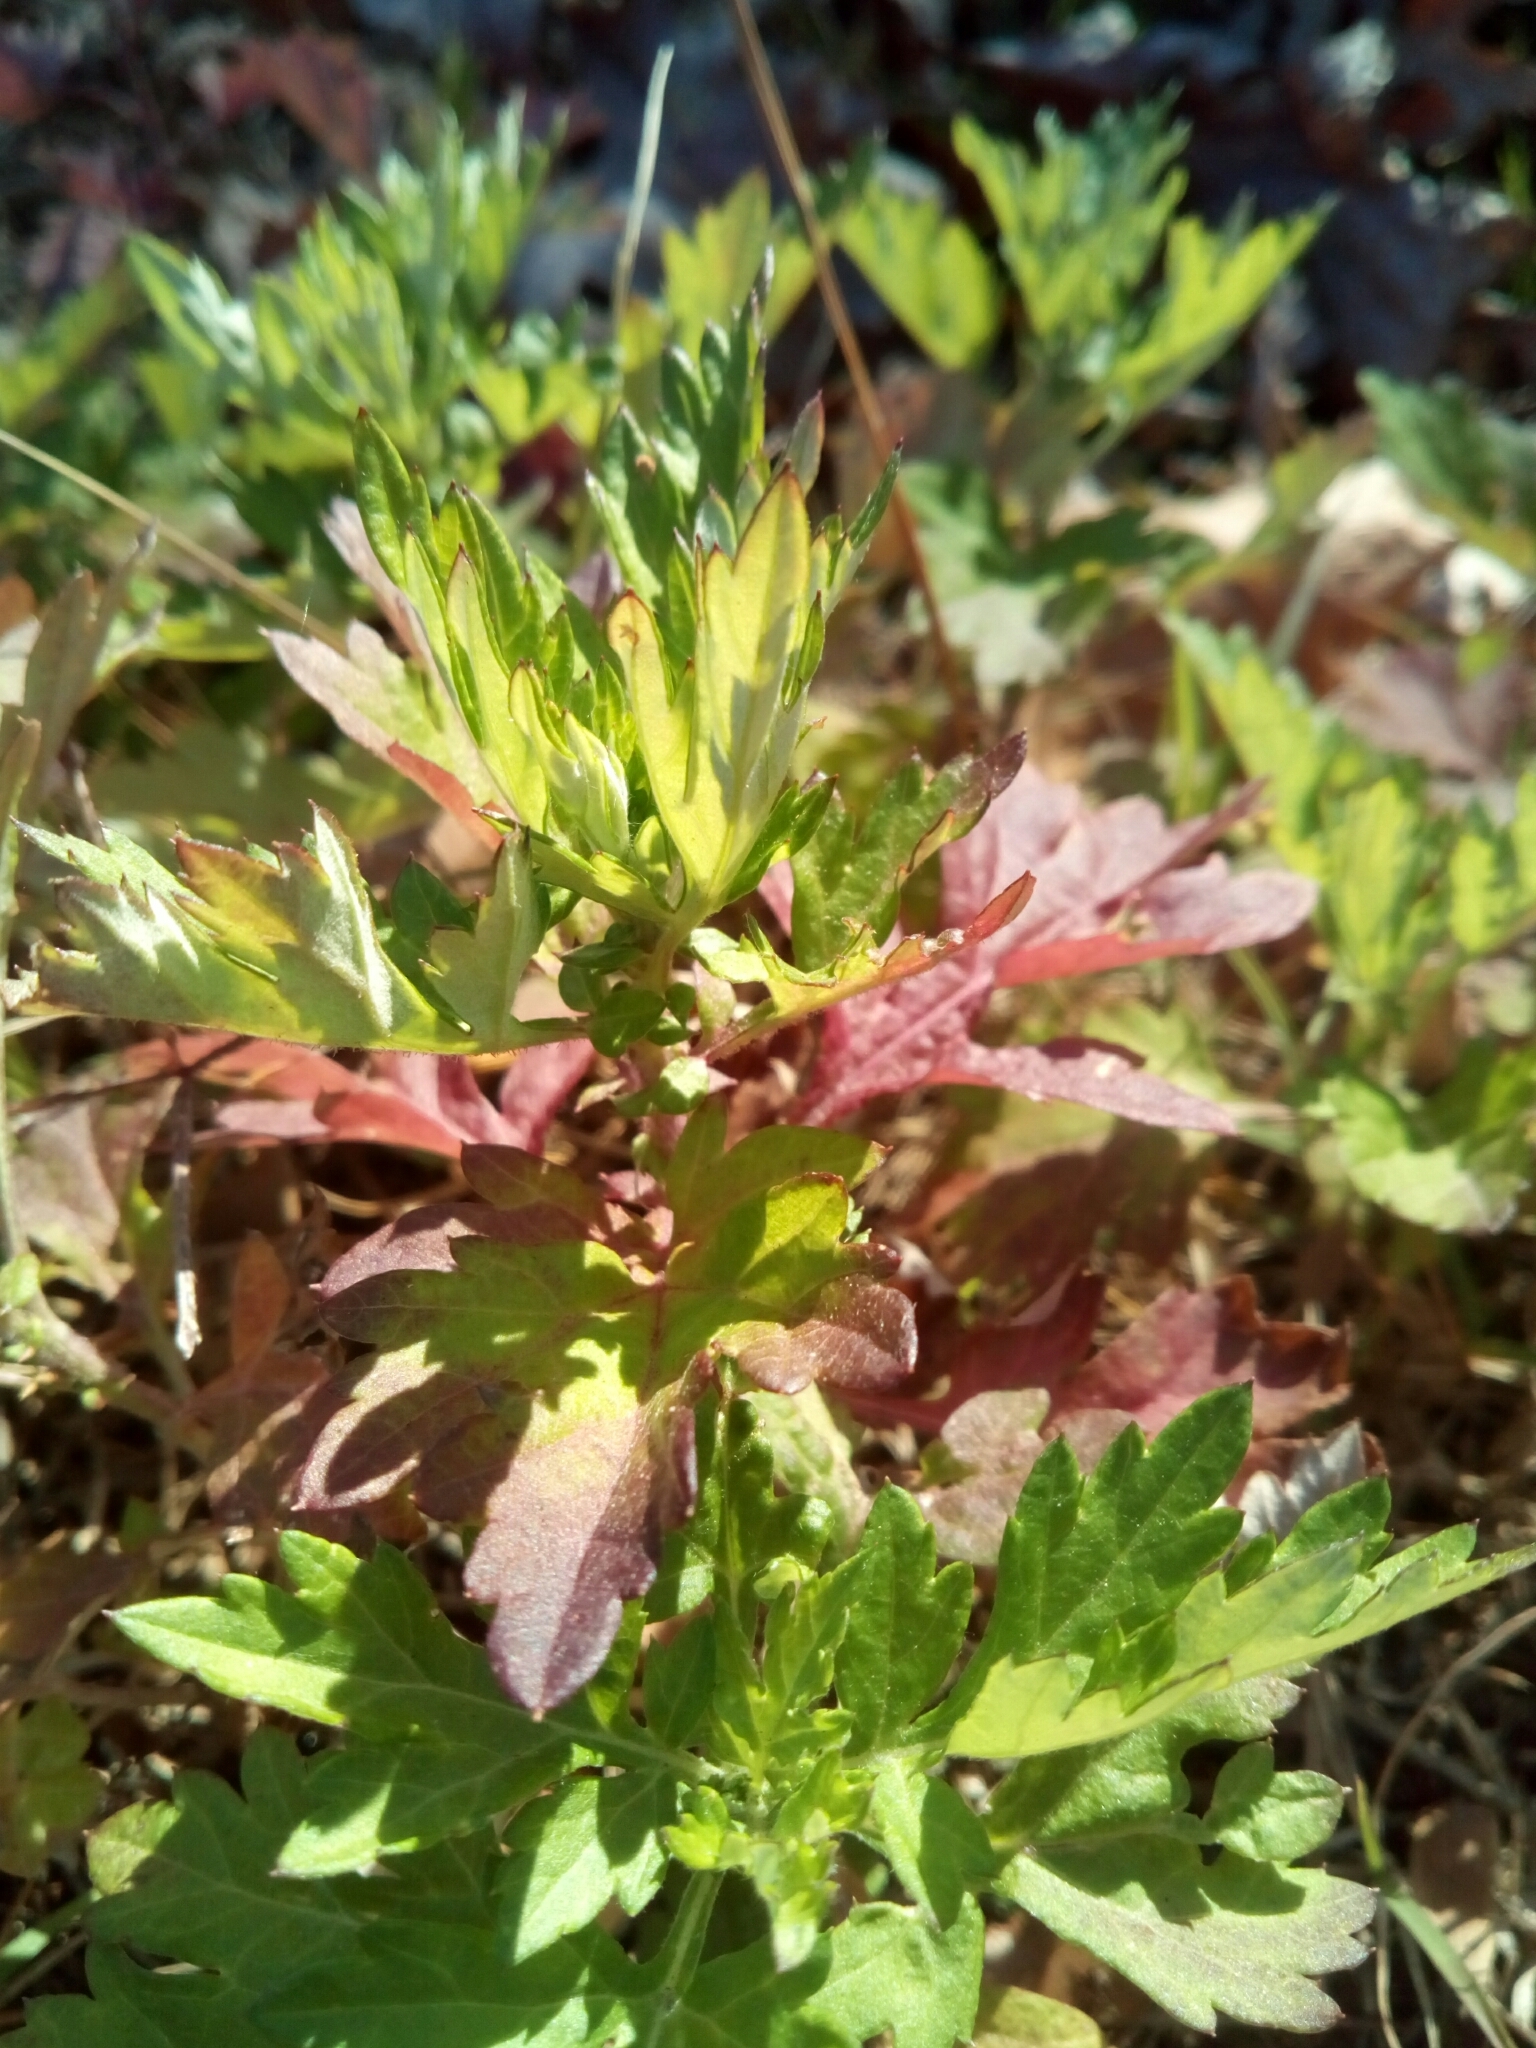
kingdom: Plantae
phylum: Tracheophyta
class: Magnoliopsida
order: Asterales
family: Asteraceae
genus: Artemisia
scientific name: Artemisia vulgaris
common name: Mugwort
